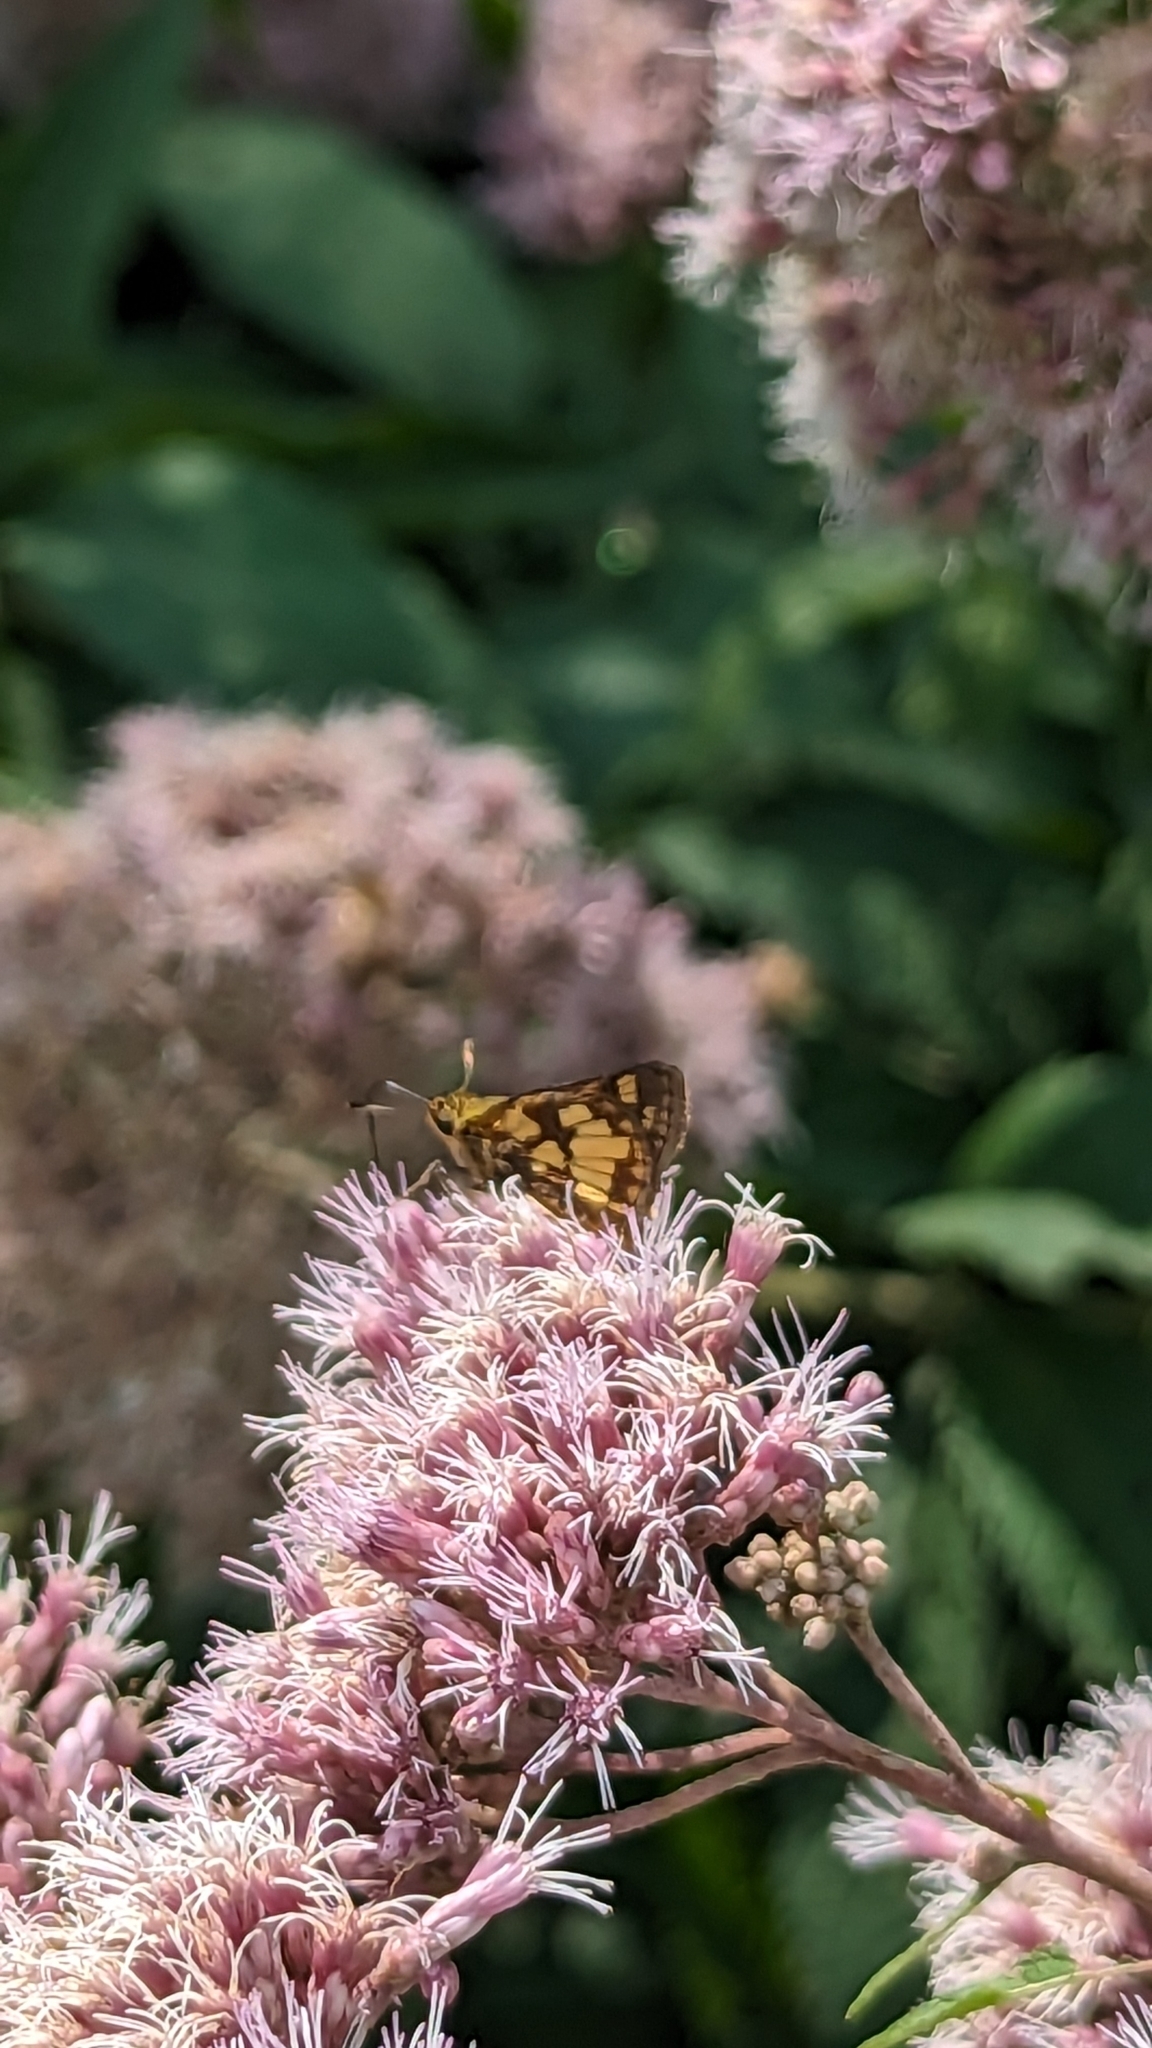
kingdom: Animalia
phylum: Arthropoda
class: Insecta
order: Lepidoptera
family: Hesperiidae
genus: Polites
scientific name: Polites coras
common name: Peck's skipper
